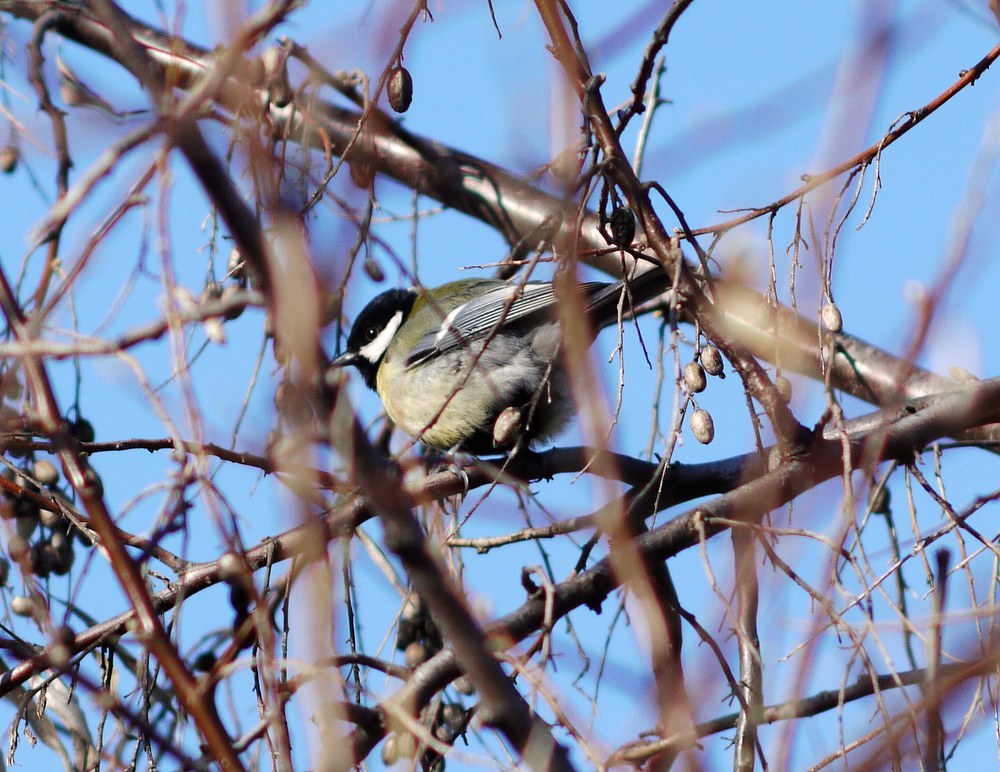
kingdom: Animalia
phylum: Chordata
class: Aves
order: Passeriformes
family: Paridae
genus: Parus
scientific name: Parus major
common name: Great tit
